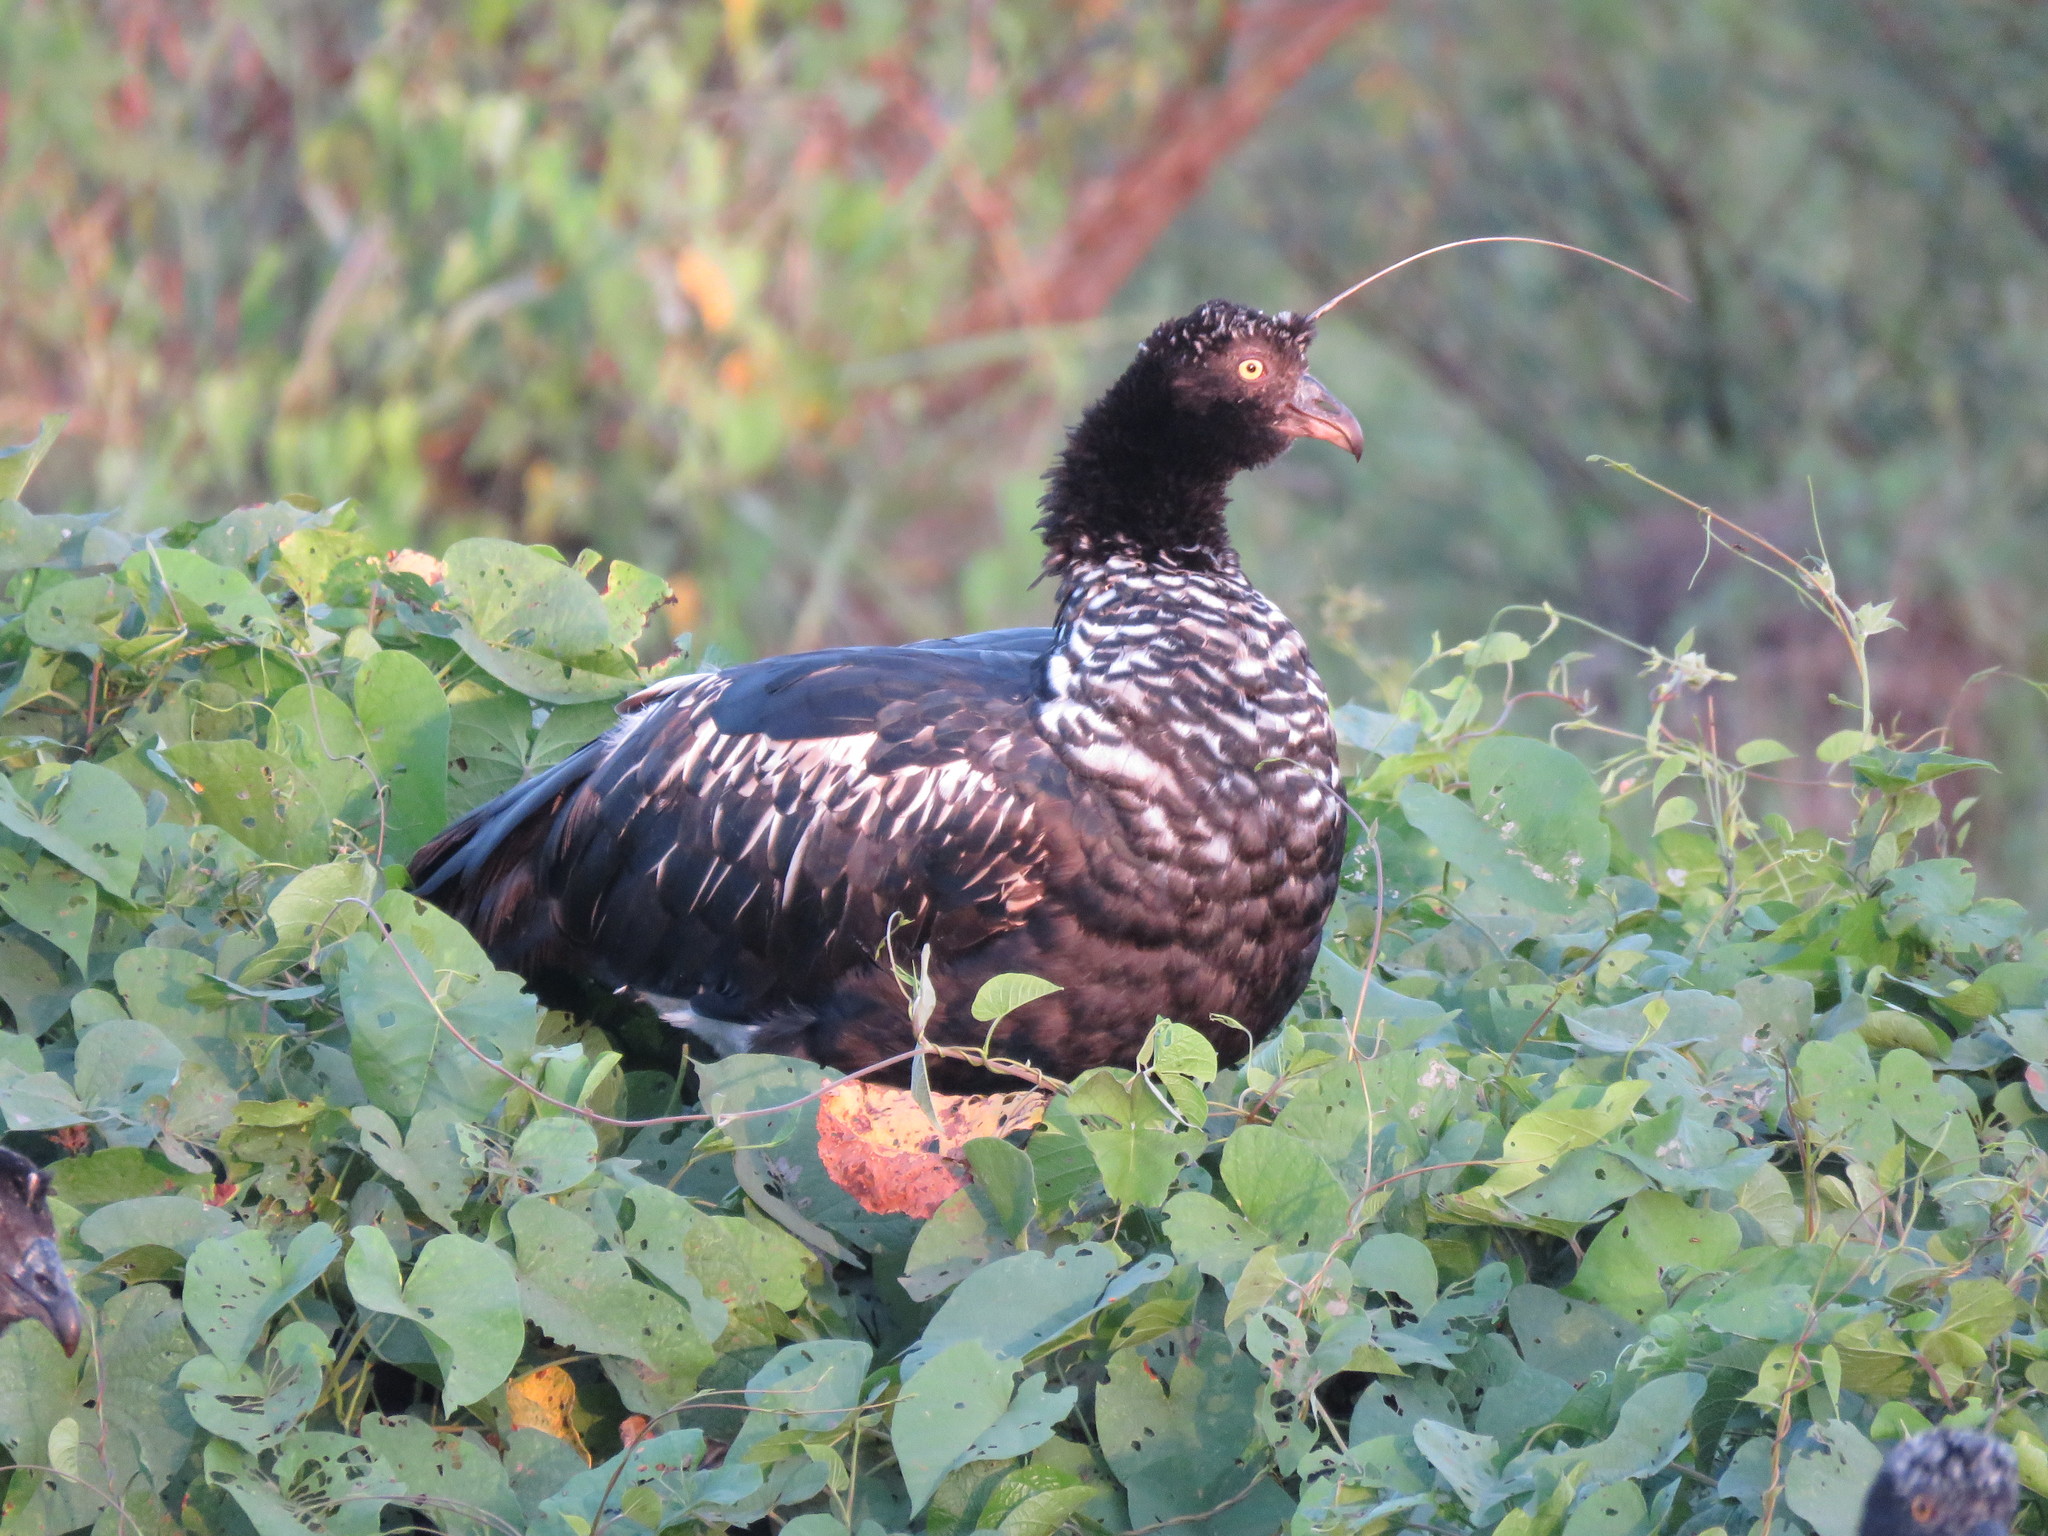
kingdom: Animalia
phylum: Chordata
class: Aves
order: Anseriformes
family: Anhimidae
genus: Anhima
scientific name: Anhima cornuta
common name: Horned screamer
